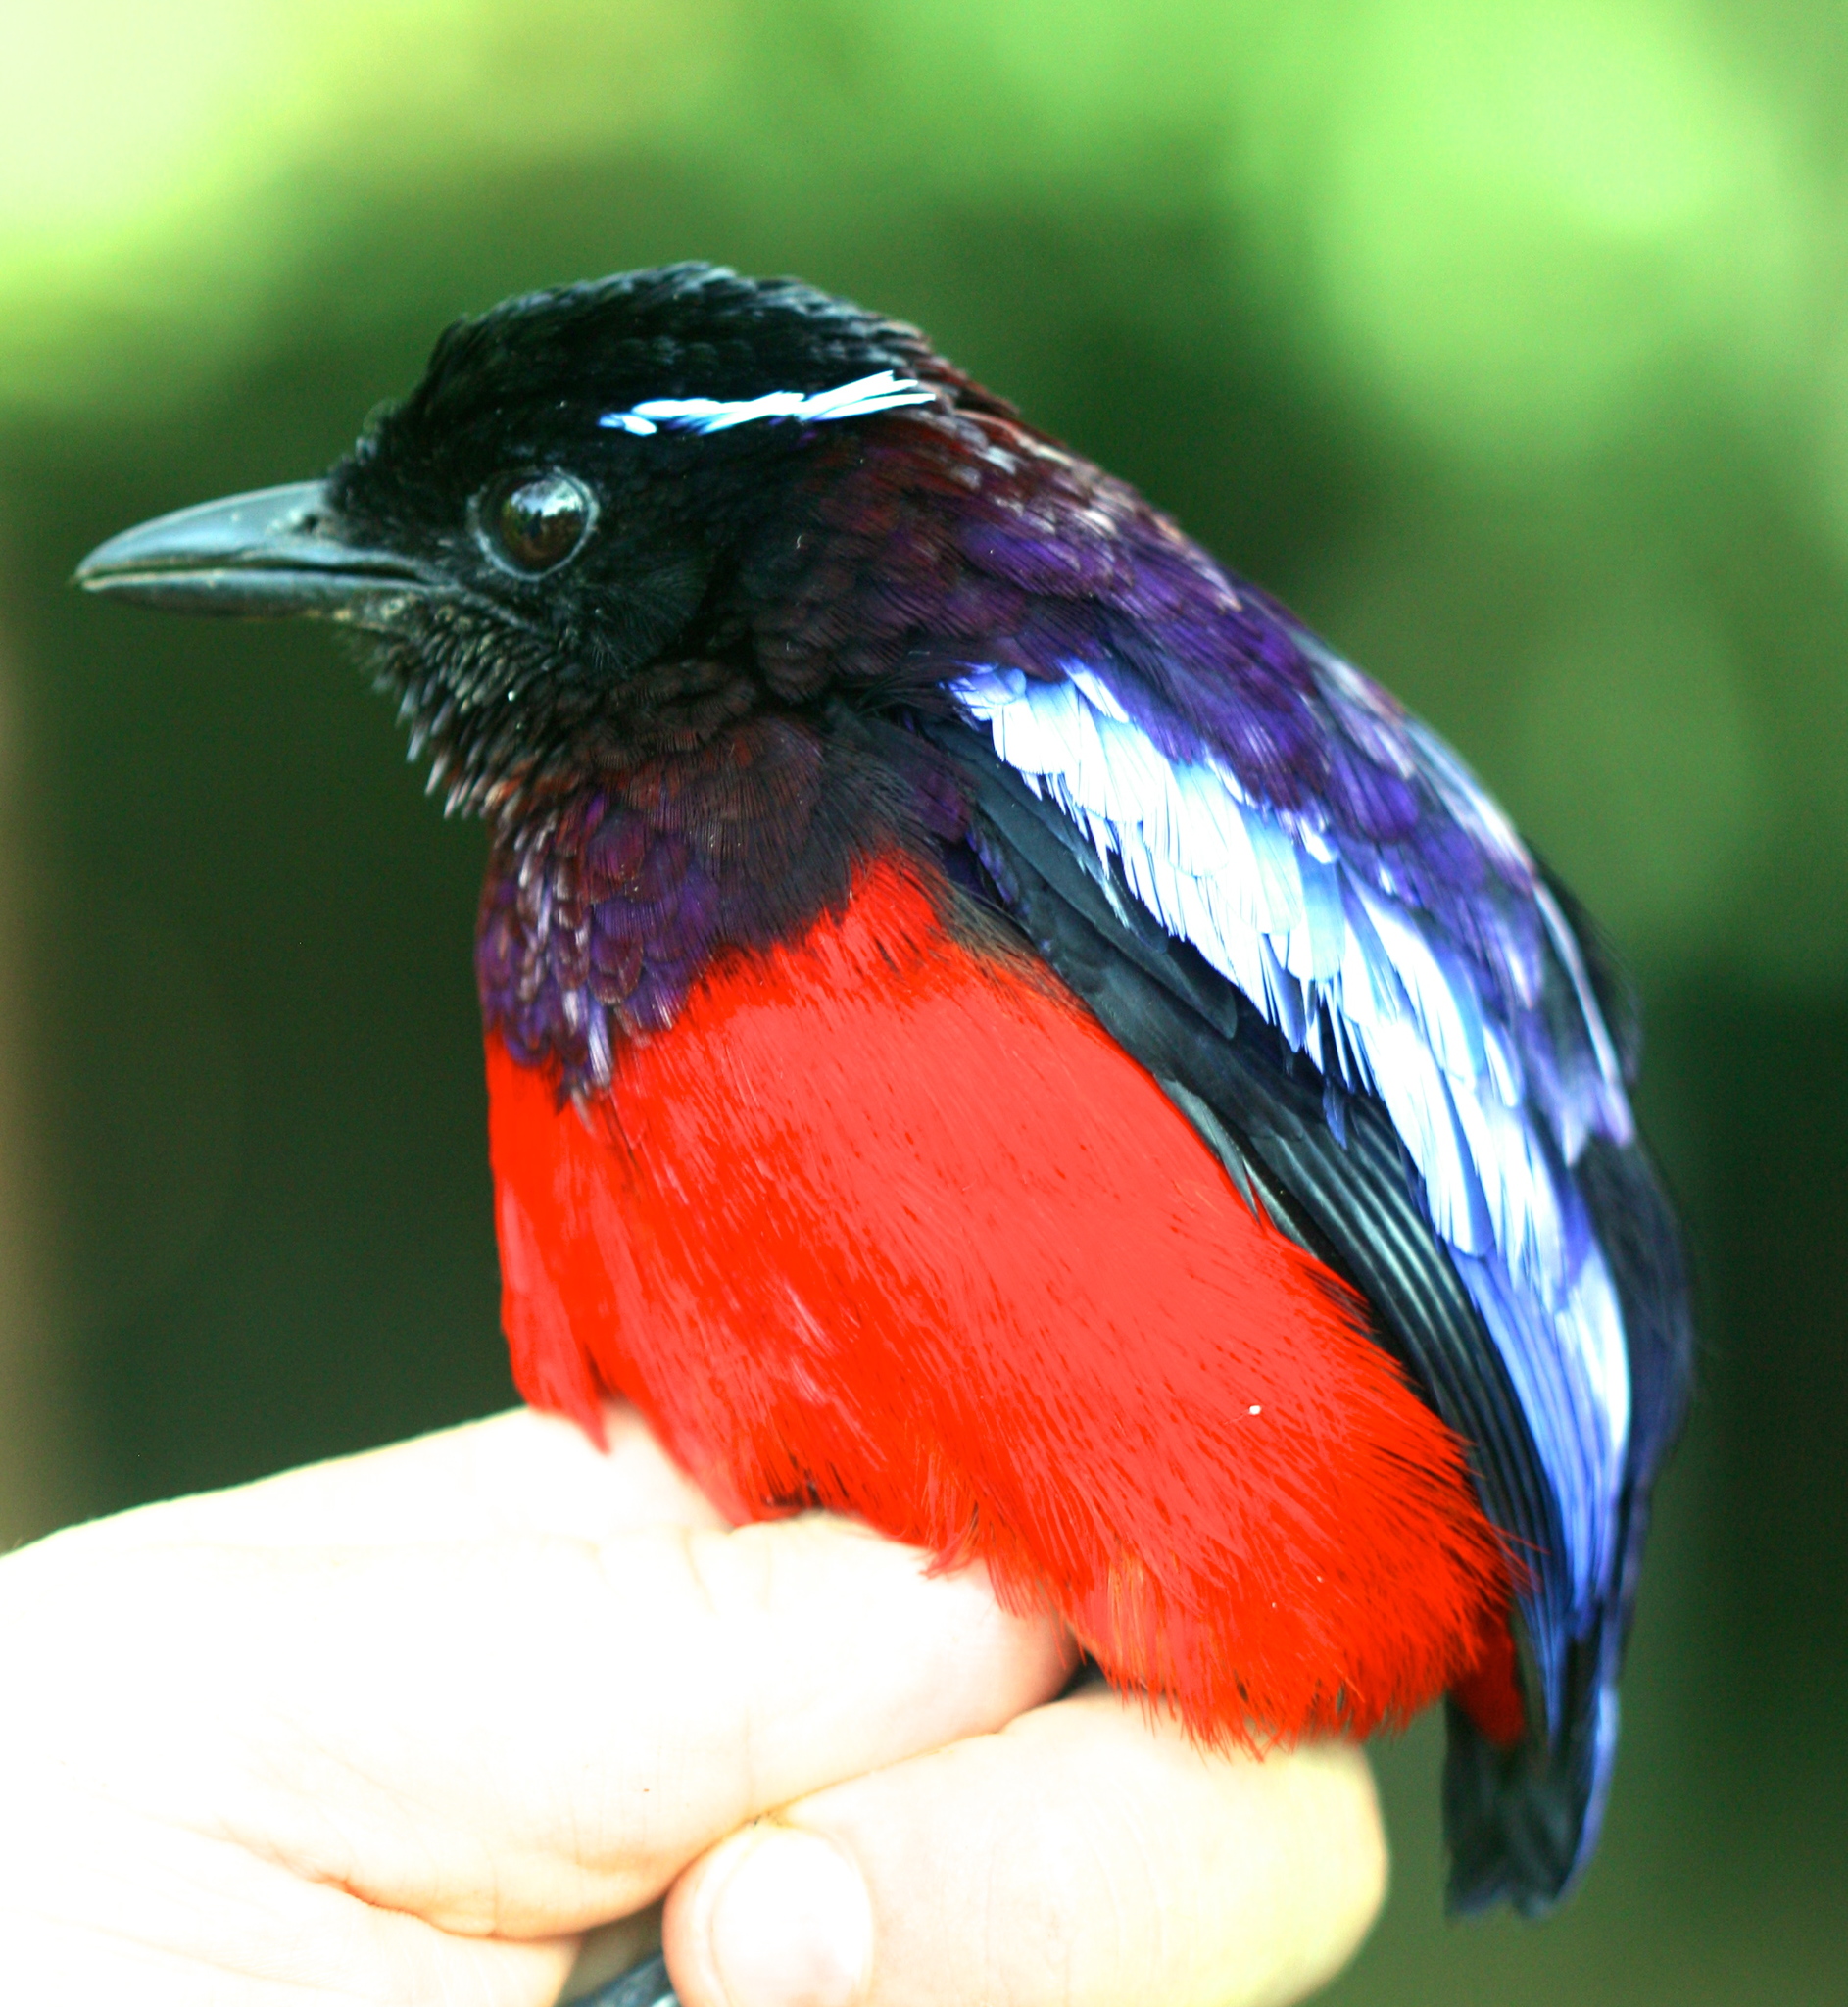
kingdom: Animalia
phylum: Chordata
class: Aves
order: Passeriformes
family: Pittidae
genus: Erythropitta
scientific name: Erythropitta ussheri
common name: Black-crowned pitta
